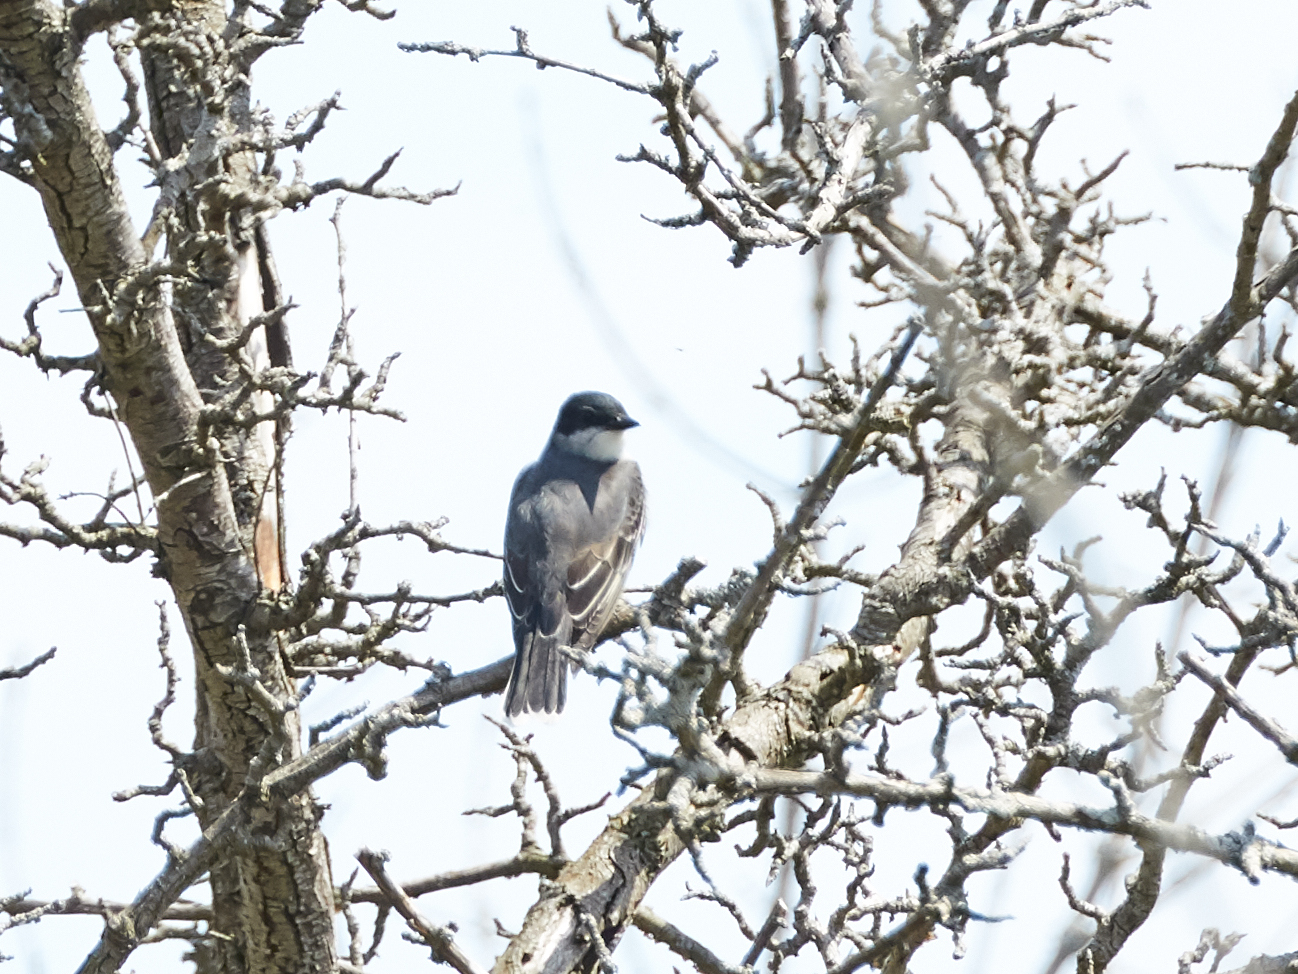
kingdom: Animalia
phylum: Chordata
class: Aves
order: Passeriformes
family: Tyrannidae
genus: Tyrannus
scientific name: Tyrannus tyrannus
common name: Eastern kingbird
